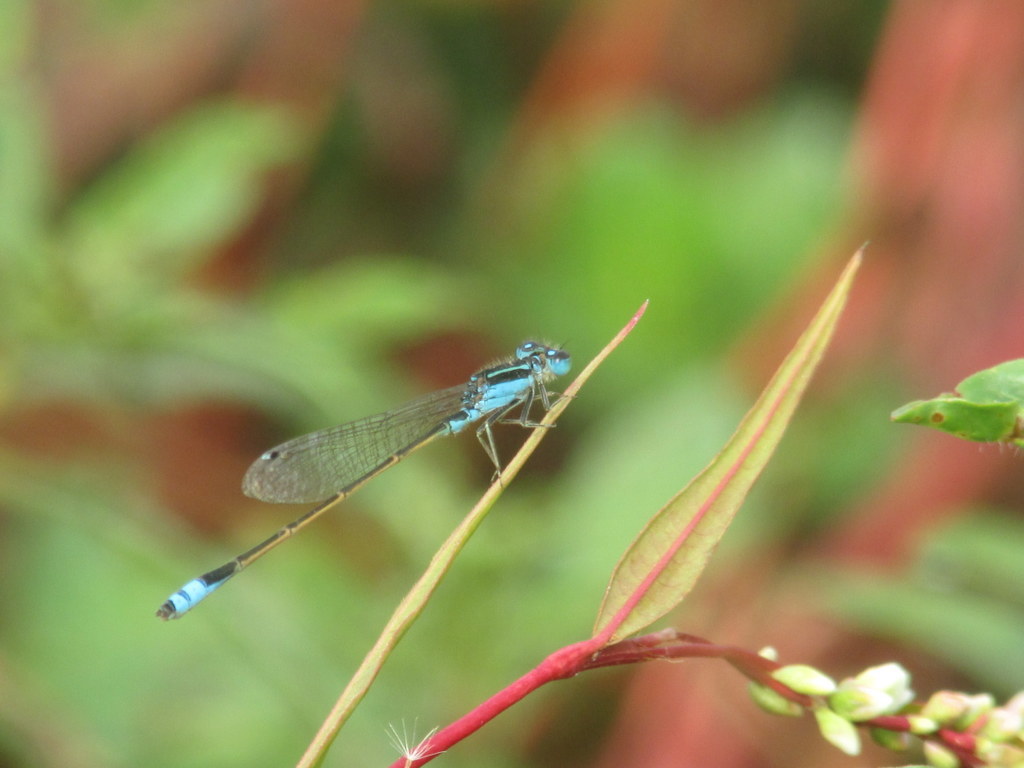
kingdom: Animalia
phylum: Arthropoda
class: Insecta
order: Odonata
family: Coenagrionidae
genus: Ischnura
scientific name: Ischnura fluviatilis
